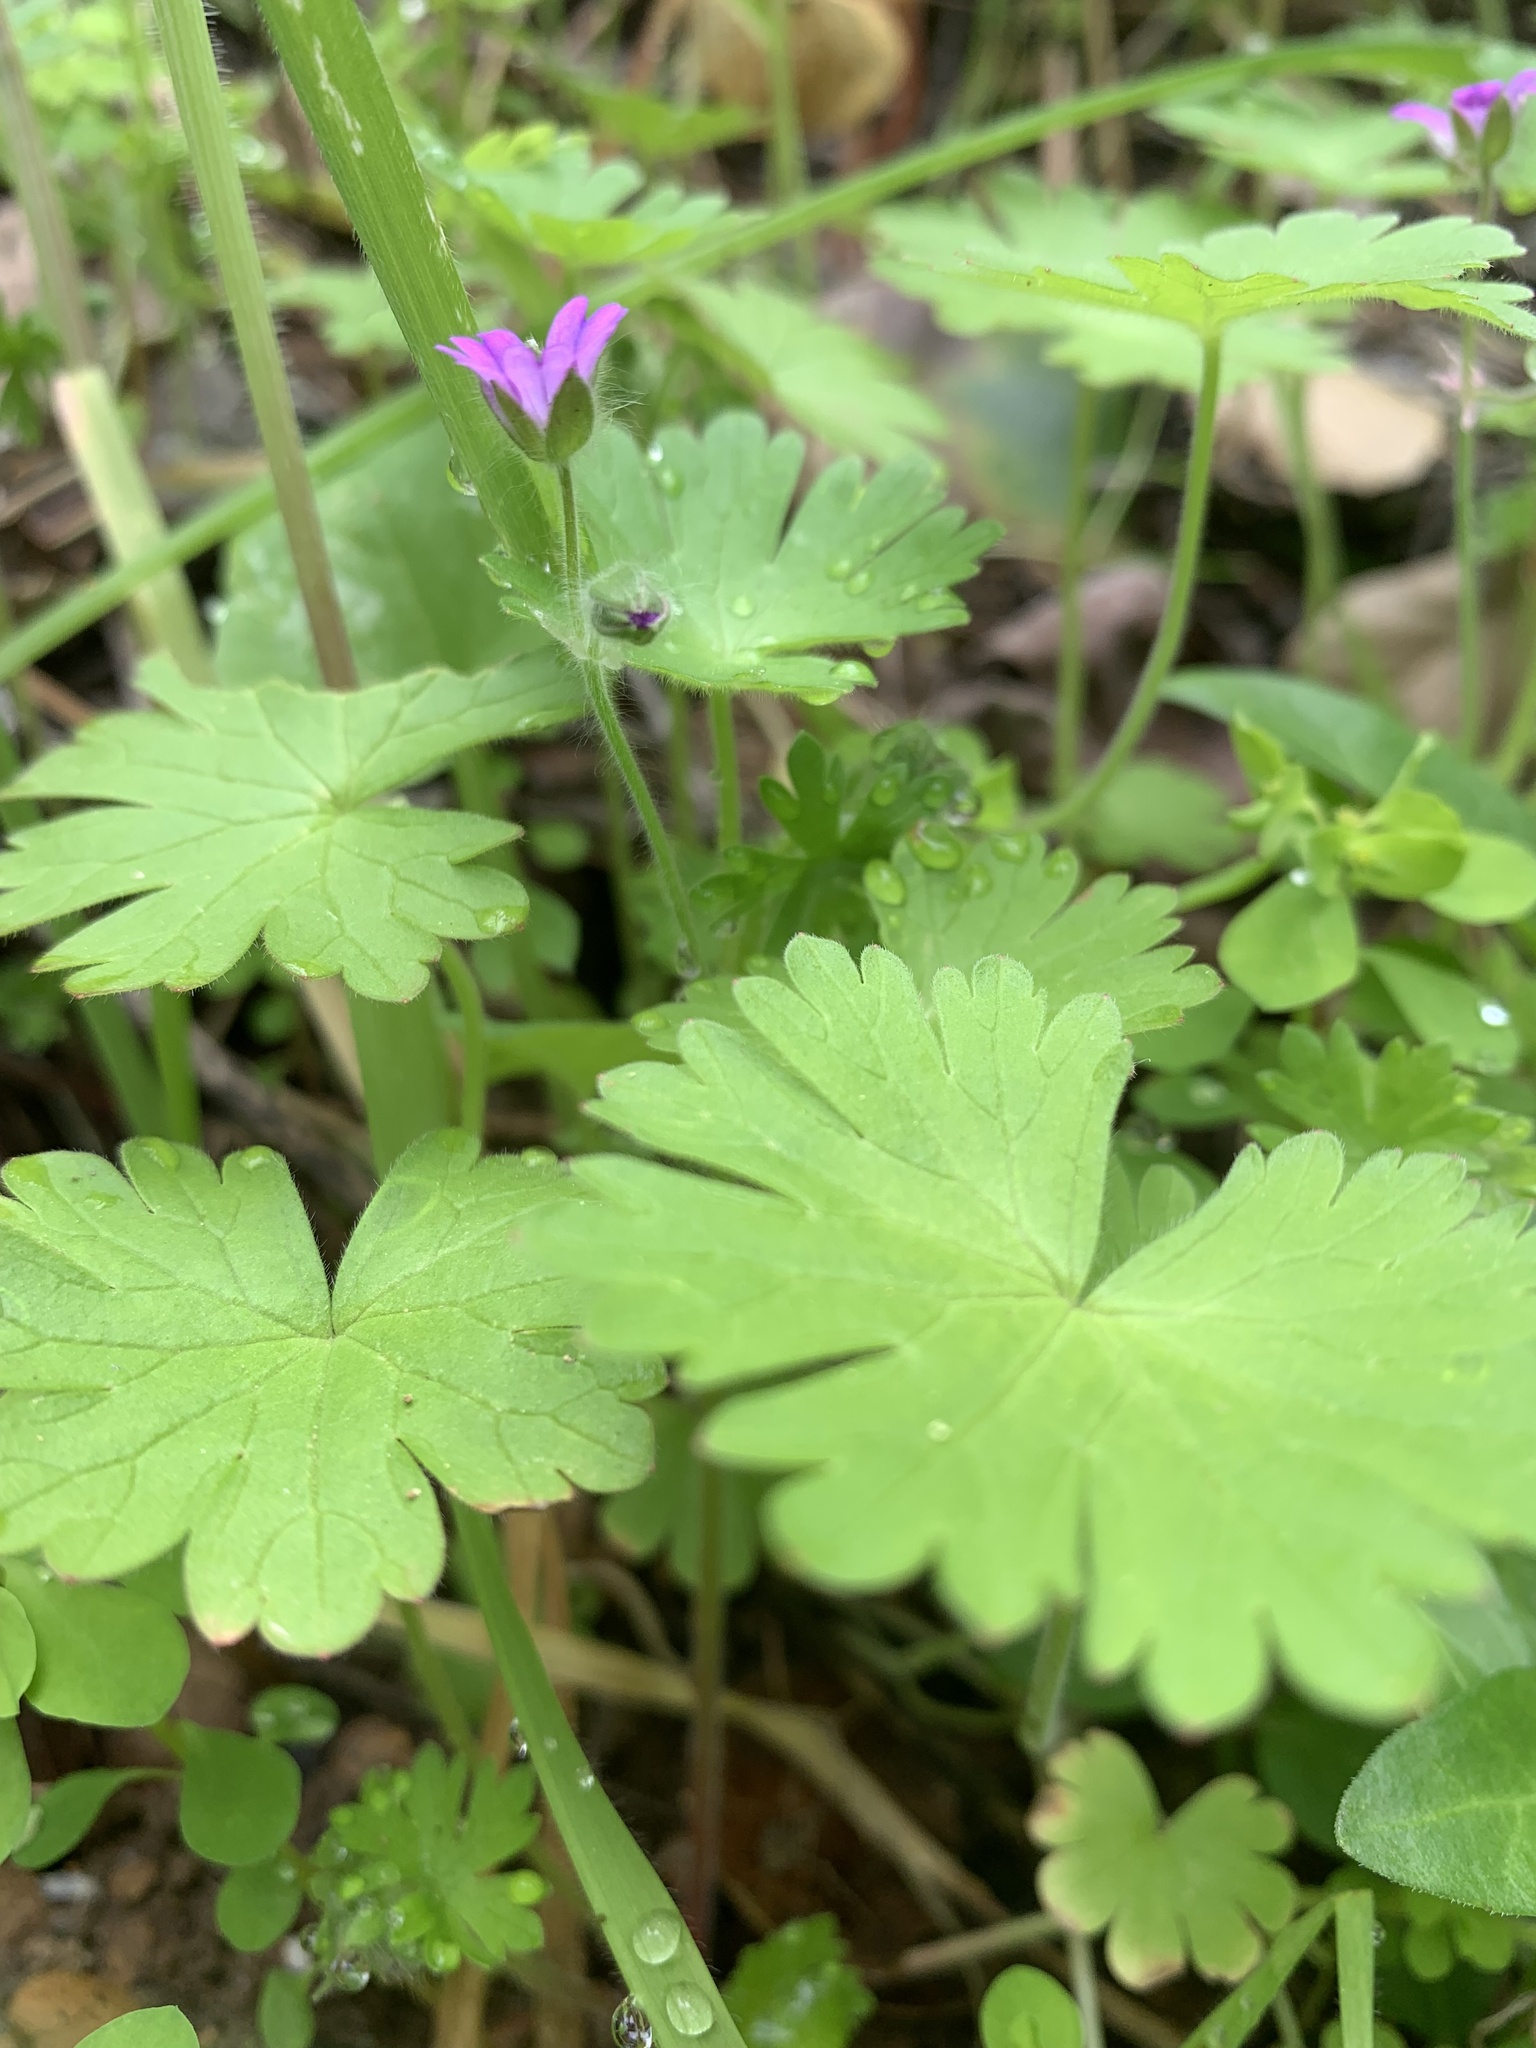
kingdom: Plantae
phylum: Tracheophyta
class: Magnoliopsida
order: Geraniales
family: Geraniaceae
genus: Geranium
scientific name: Geranium molle
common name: Dove's-foot crane's-bill
